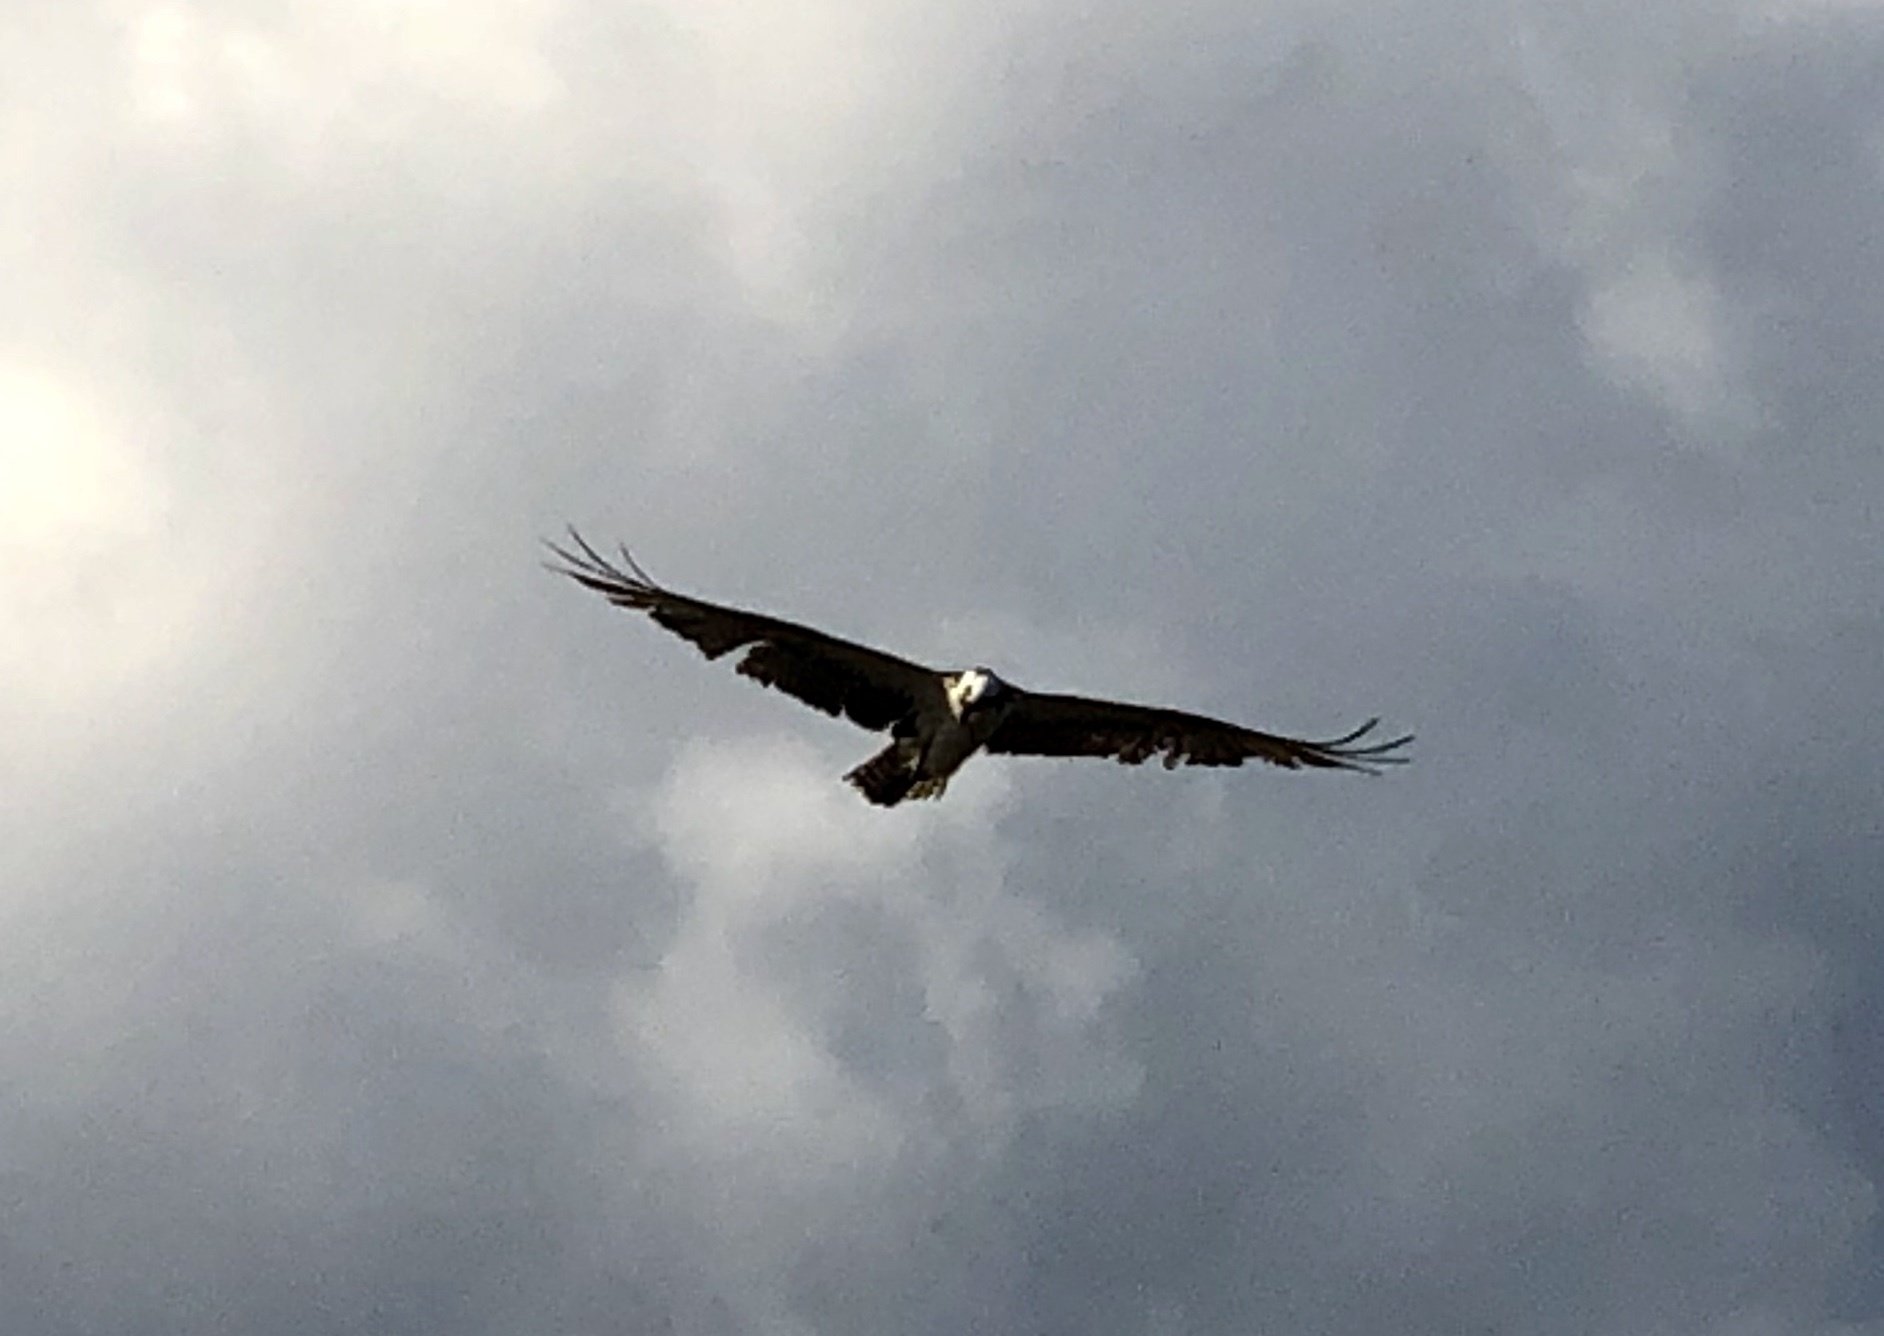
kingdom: Animalia
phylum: Chordata
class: Aves
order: Accipitriformes
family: Pandionidae
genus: Pandion
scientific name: Pandion haliaetus
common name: Osprey
